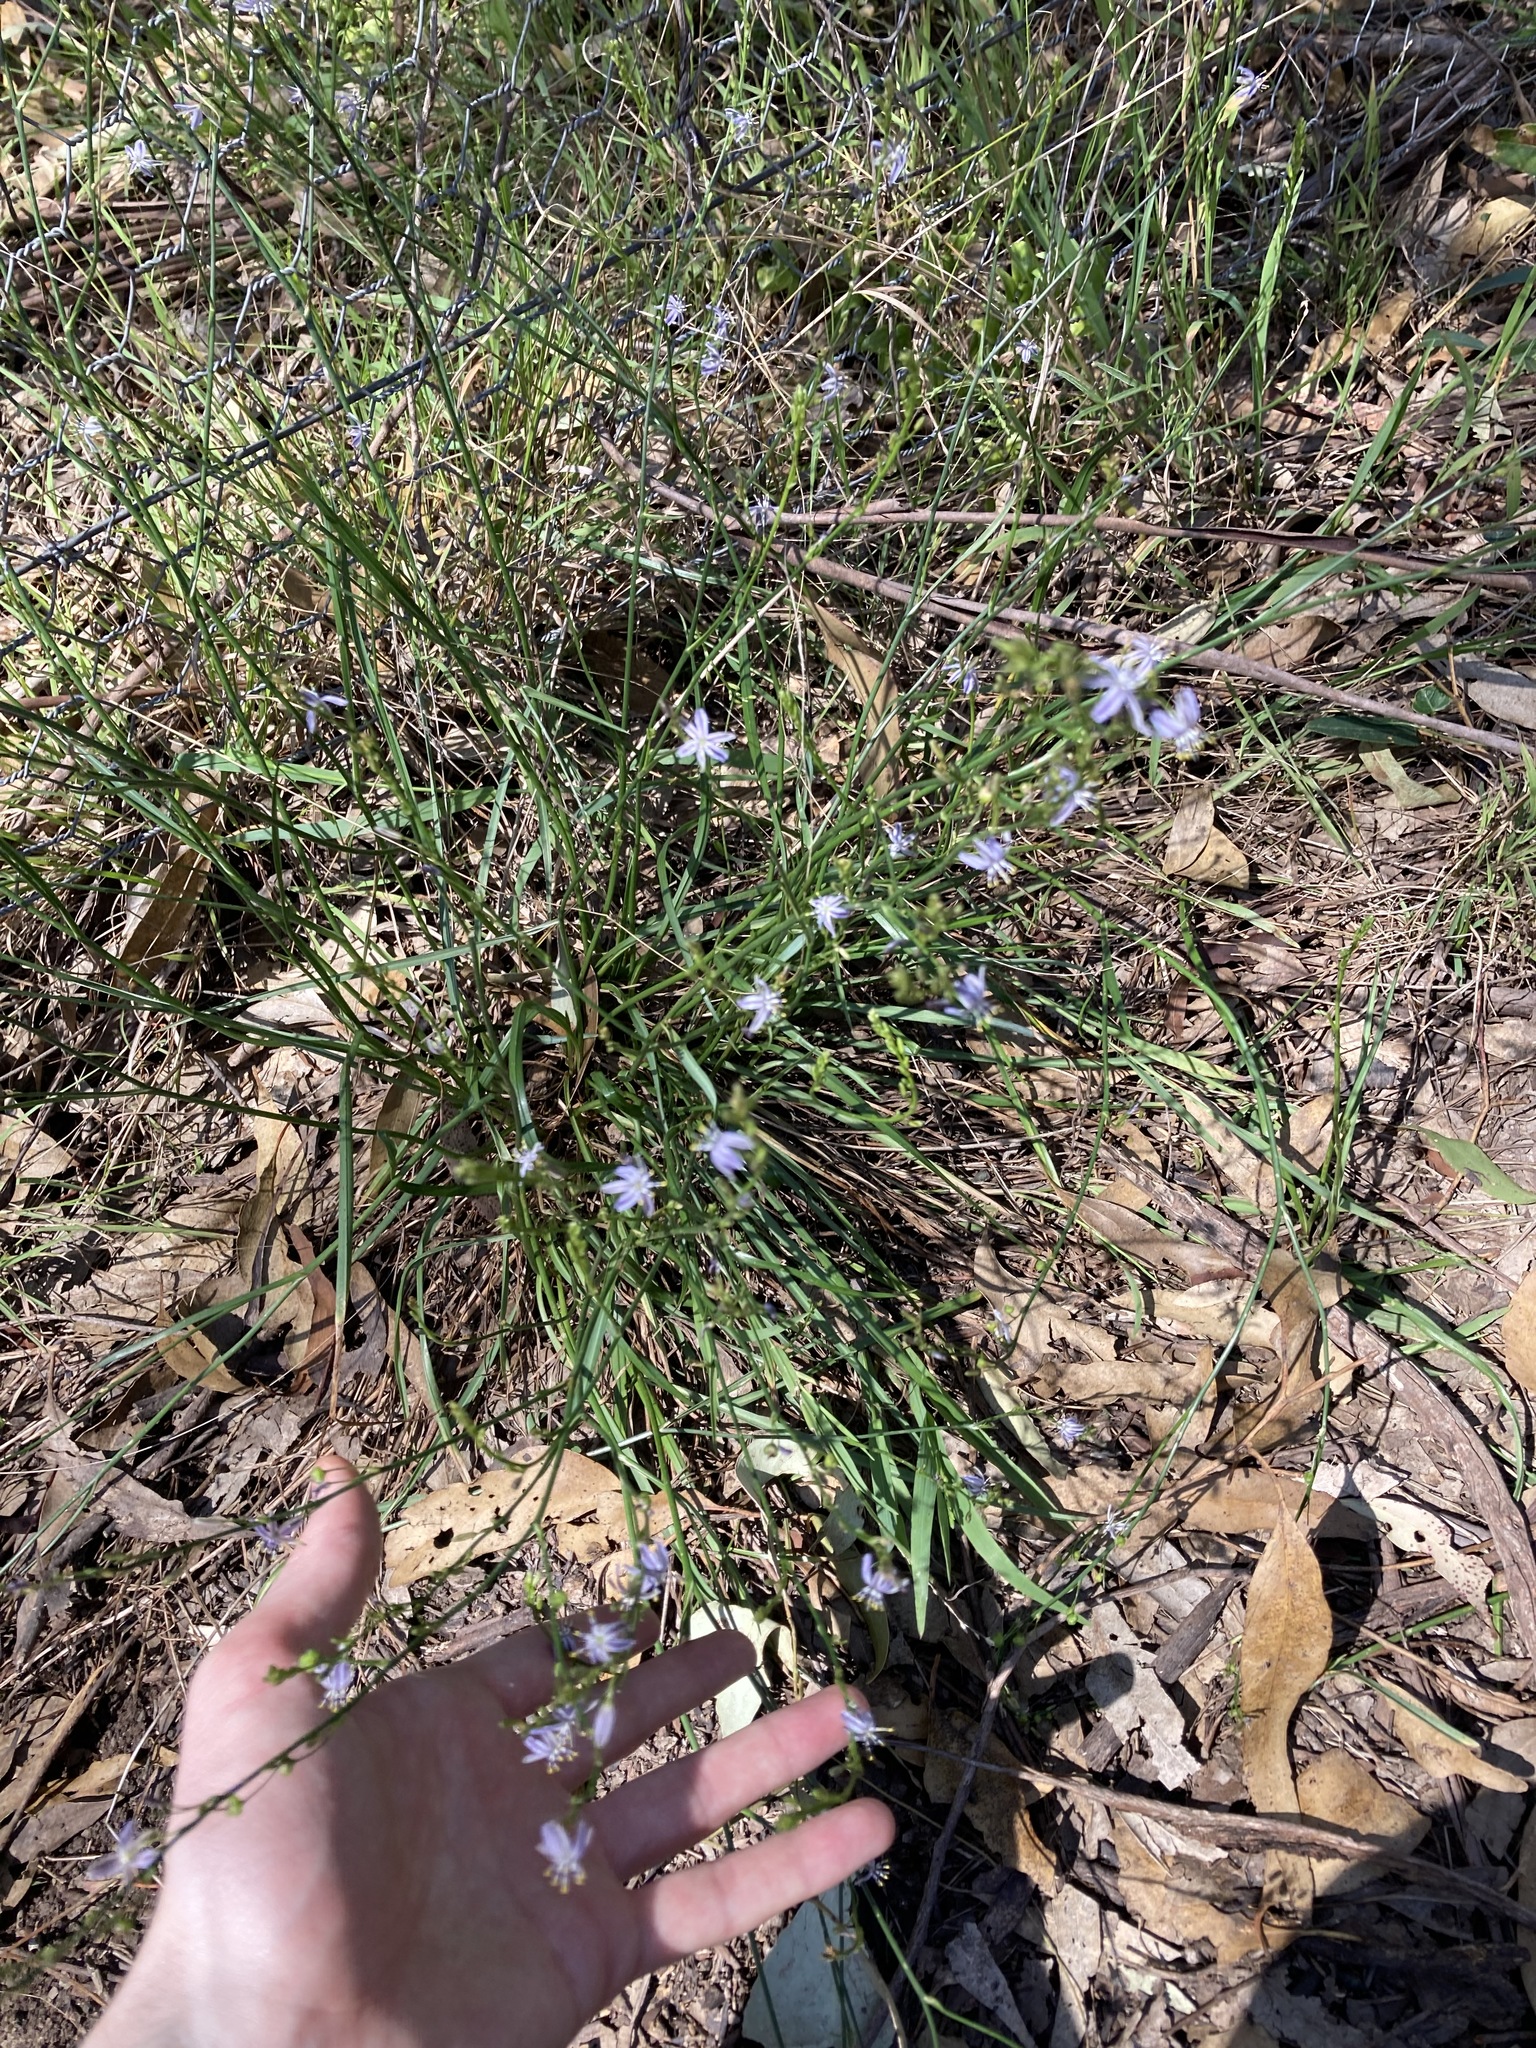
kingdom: Plantae
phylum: Tracheophyta
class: Liliopsida
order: Asparagales
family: Asphodelaceae
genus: Caesia
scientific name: Caesia parviflora
